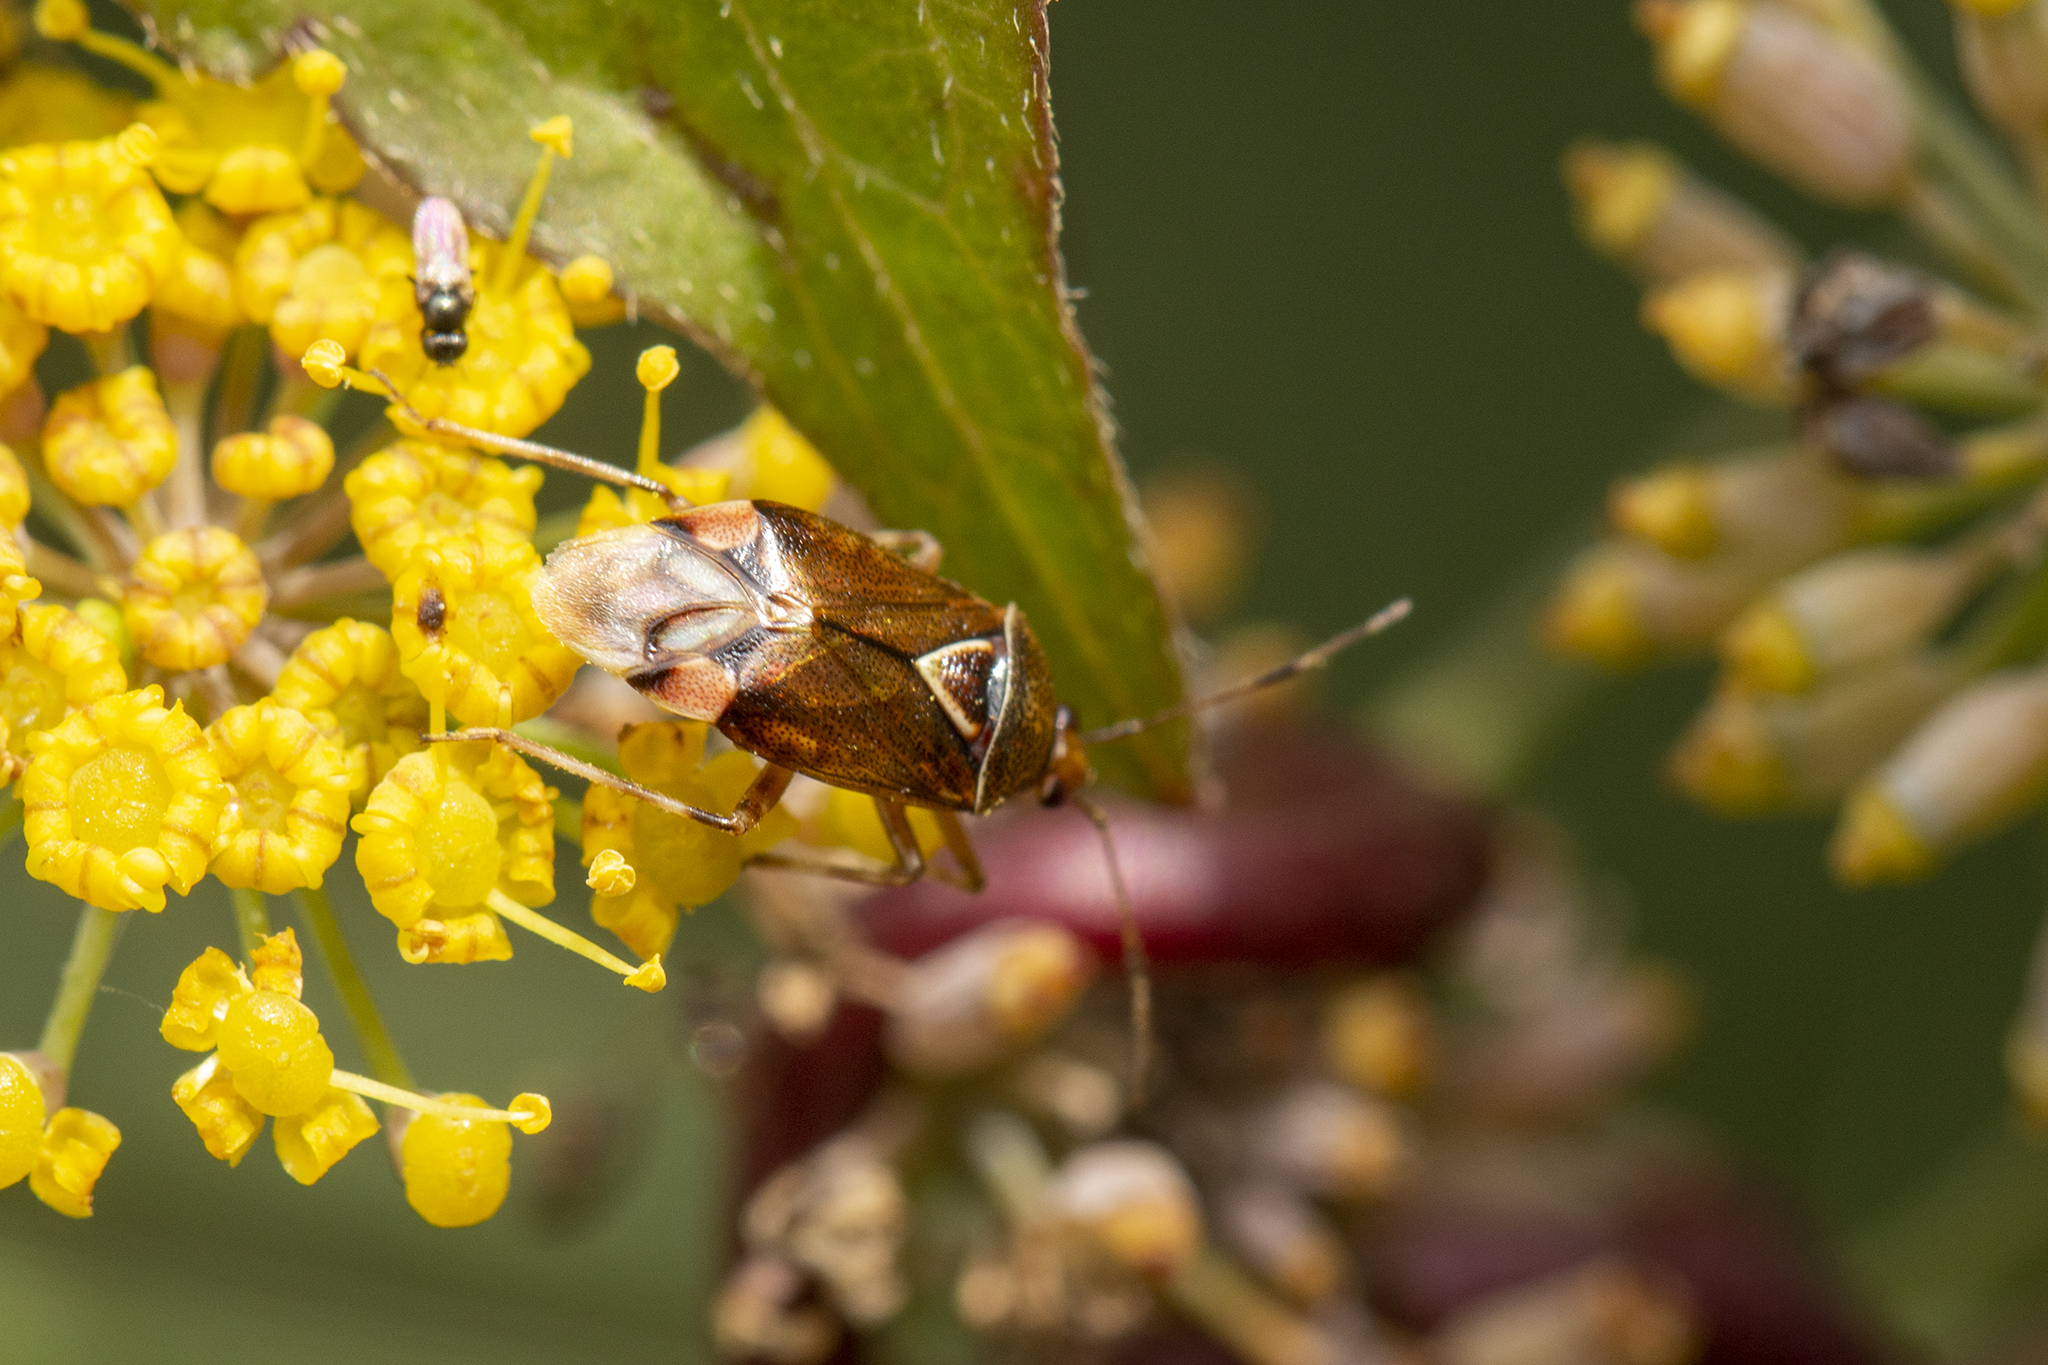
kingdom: Animalia
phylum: Arthropoda
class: Insecta
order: Hemiptera
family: Miridae
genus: Deraeocoris
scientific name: Deraeocoris flavilinea
